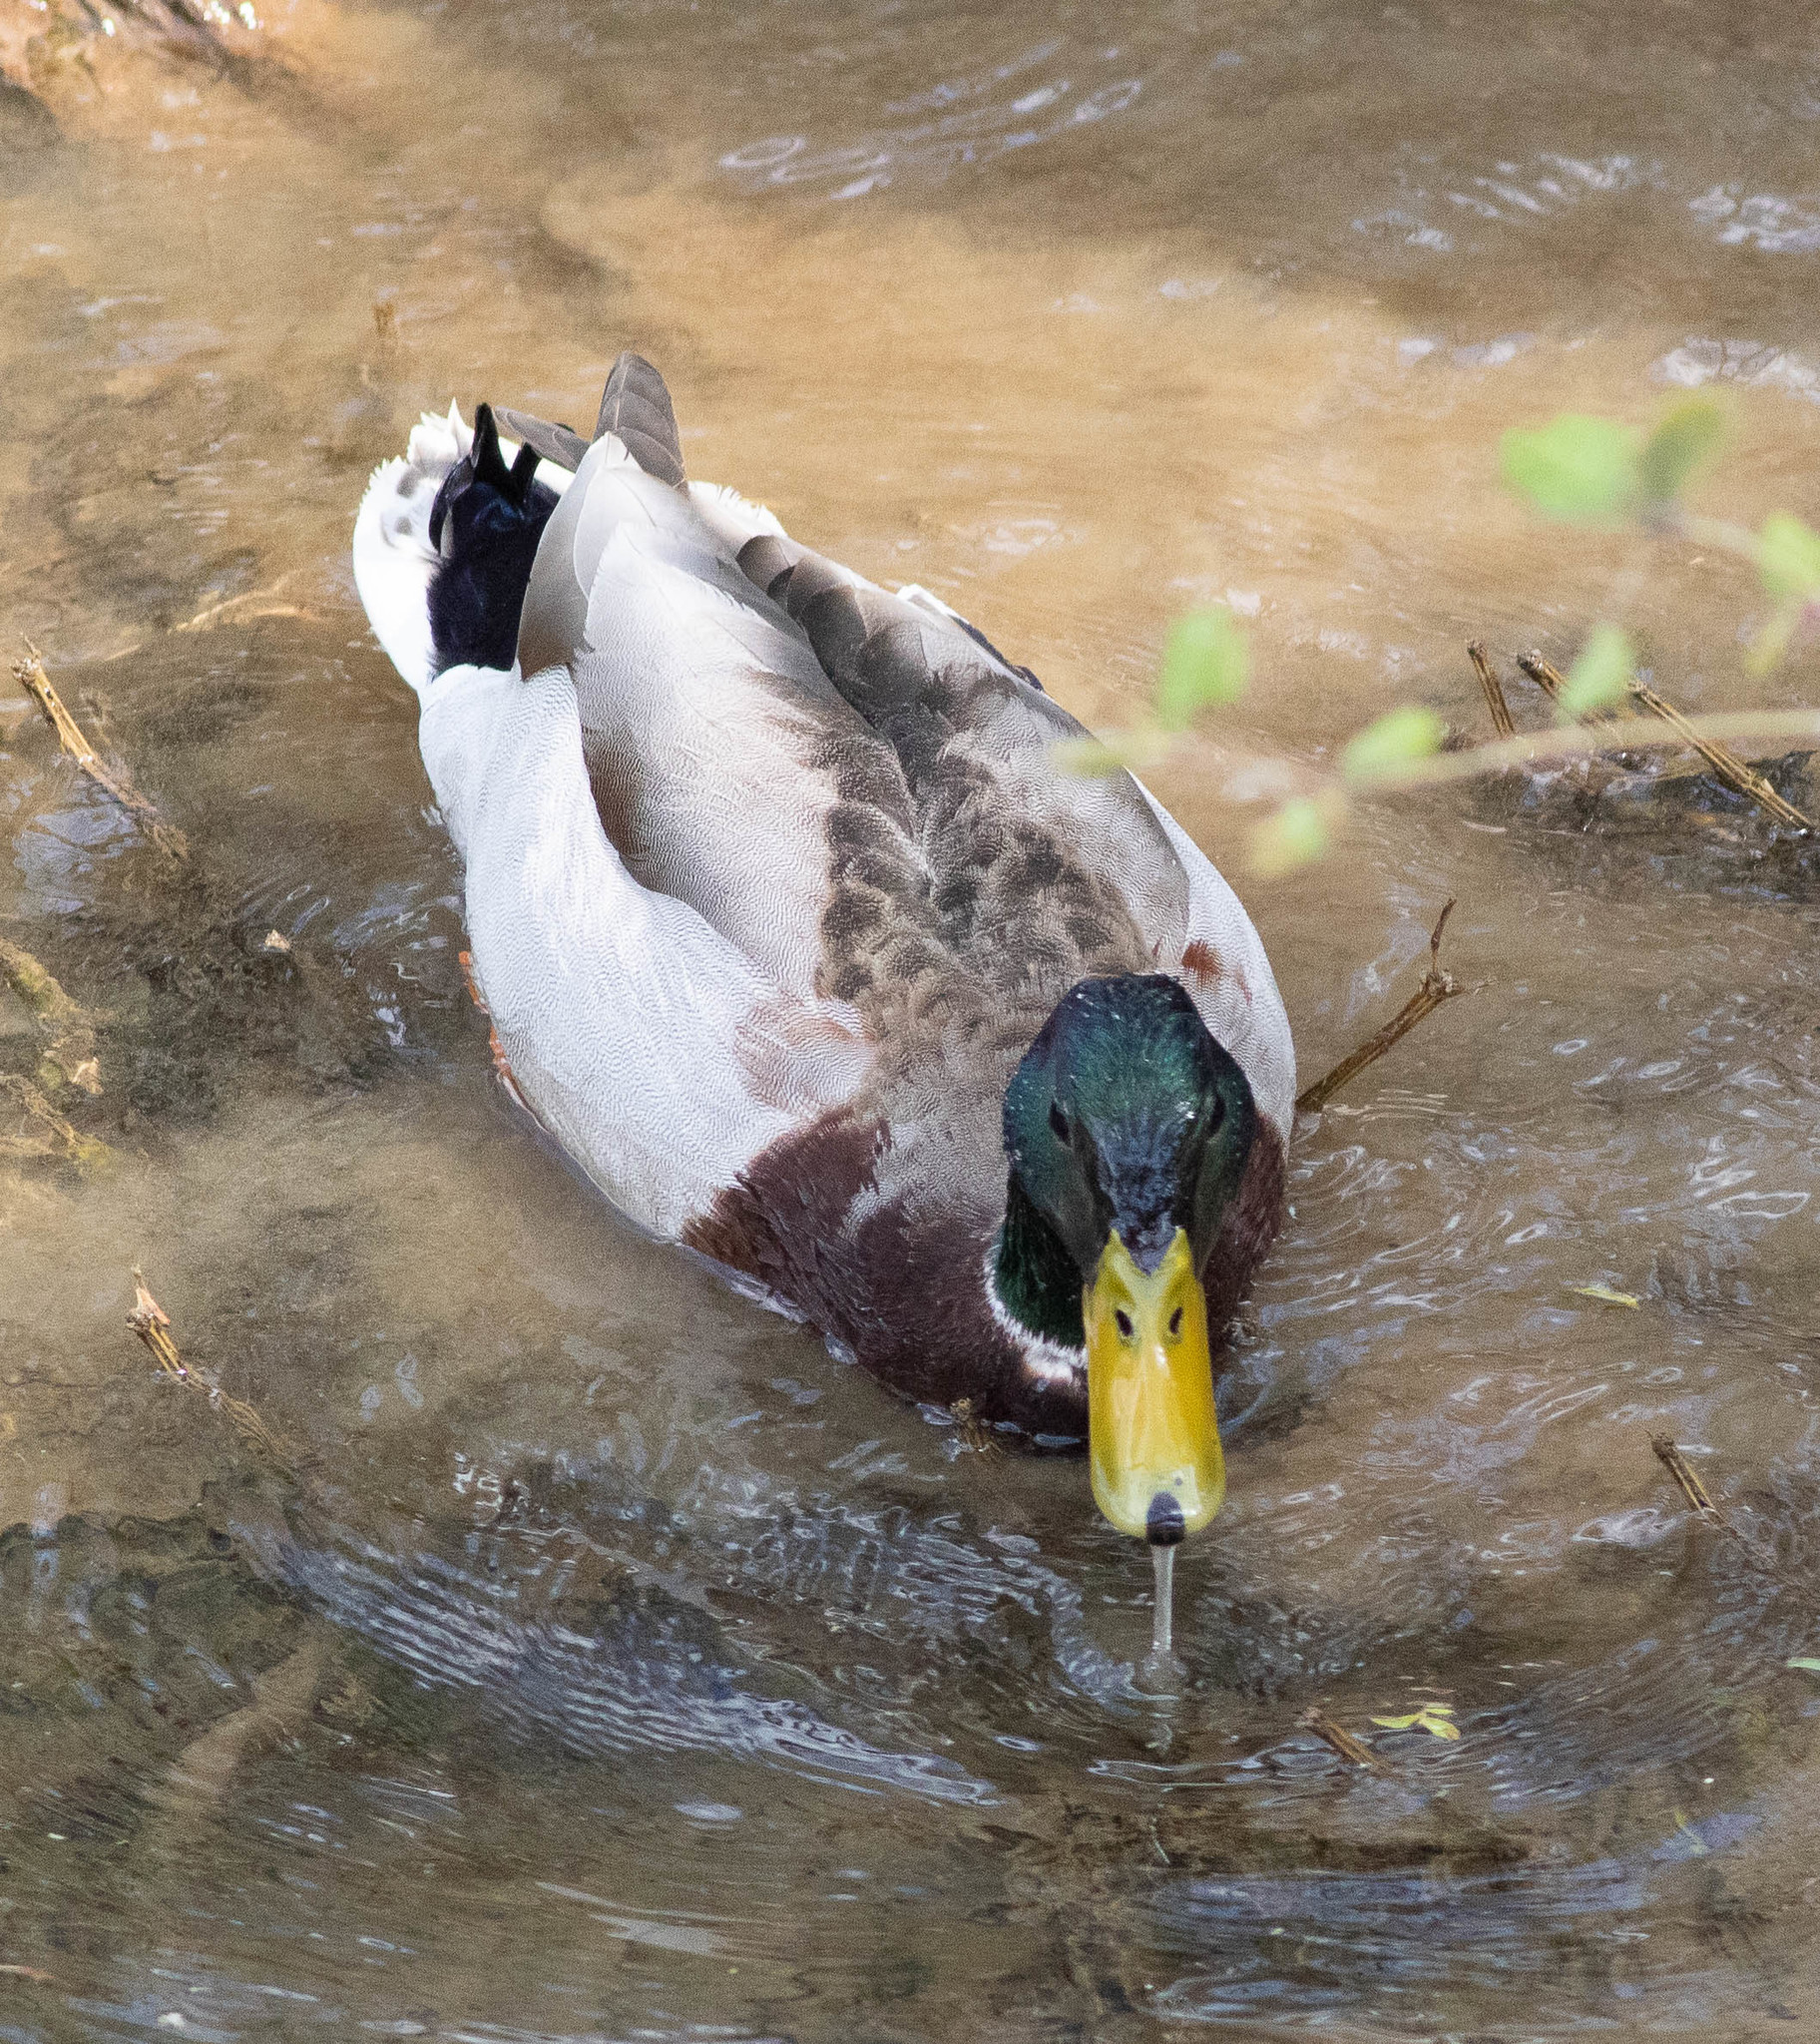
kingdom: Animalia
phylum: Chordata
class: Aves
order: Anseriformes
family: Anatidae
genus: Anas
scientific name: Anas platyrhynchos
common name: Mallard
